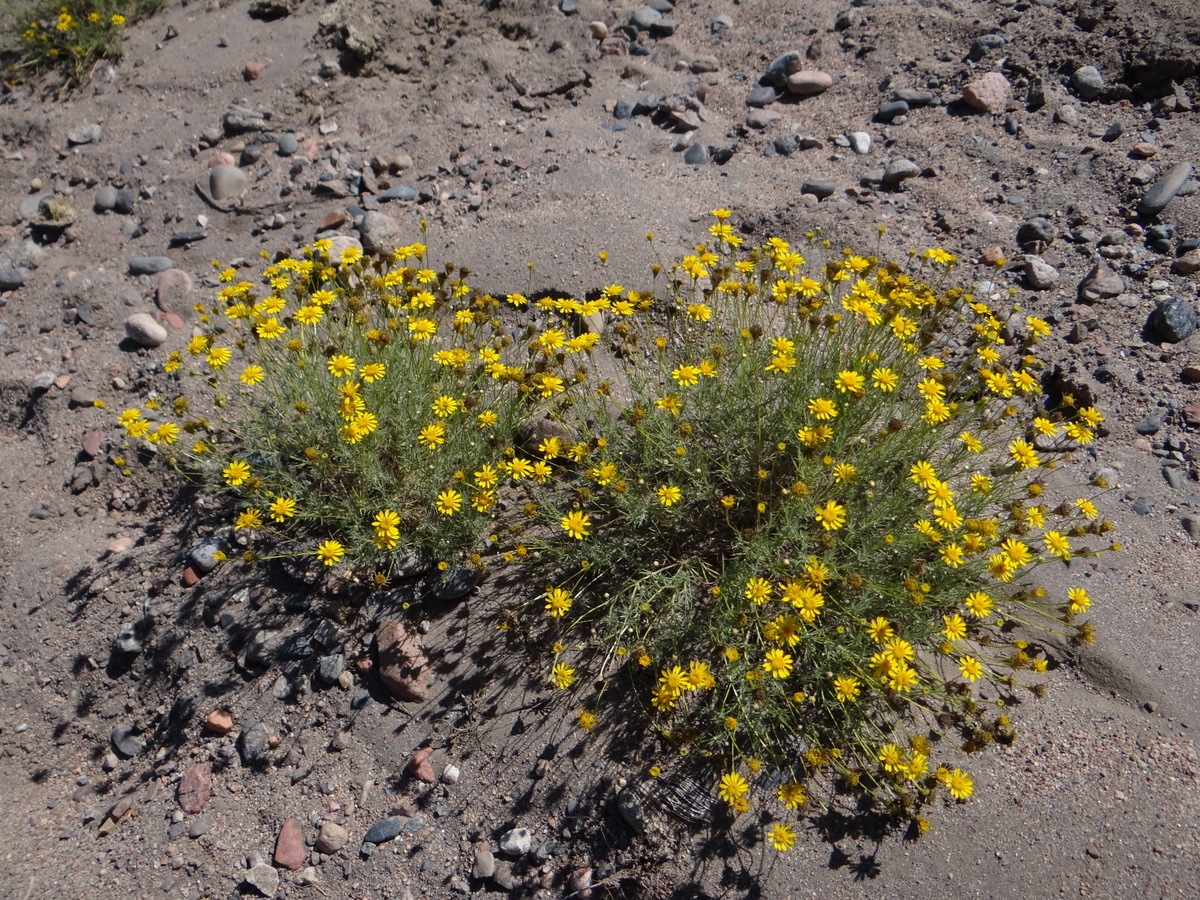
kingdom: Plantae
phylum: Tracheophyta
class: Magnoliopsida
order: Asterales
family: Asteraceae
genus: Thymophylla
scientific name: Thymophylla pentachaeta
